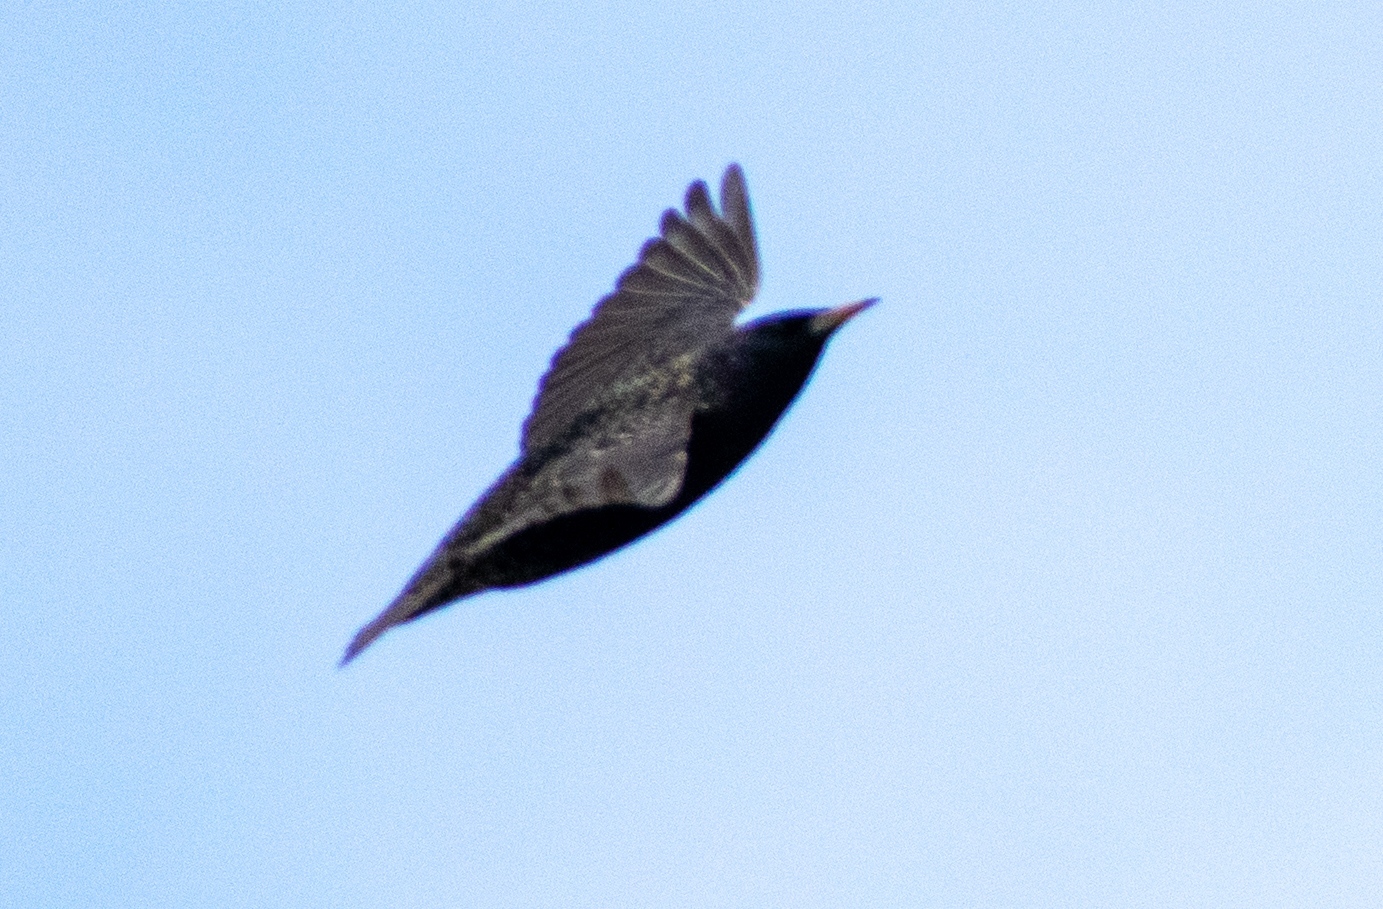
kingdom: Animalia
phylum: Chordata
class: Aves
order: Passeriformes
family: Sturnidae
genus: Sturnus
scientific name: Sturnus vulgaris
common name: Common starling
